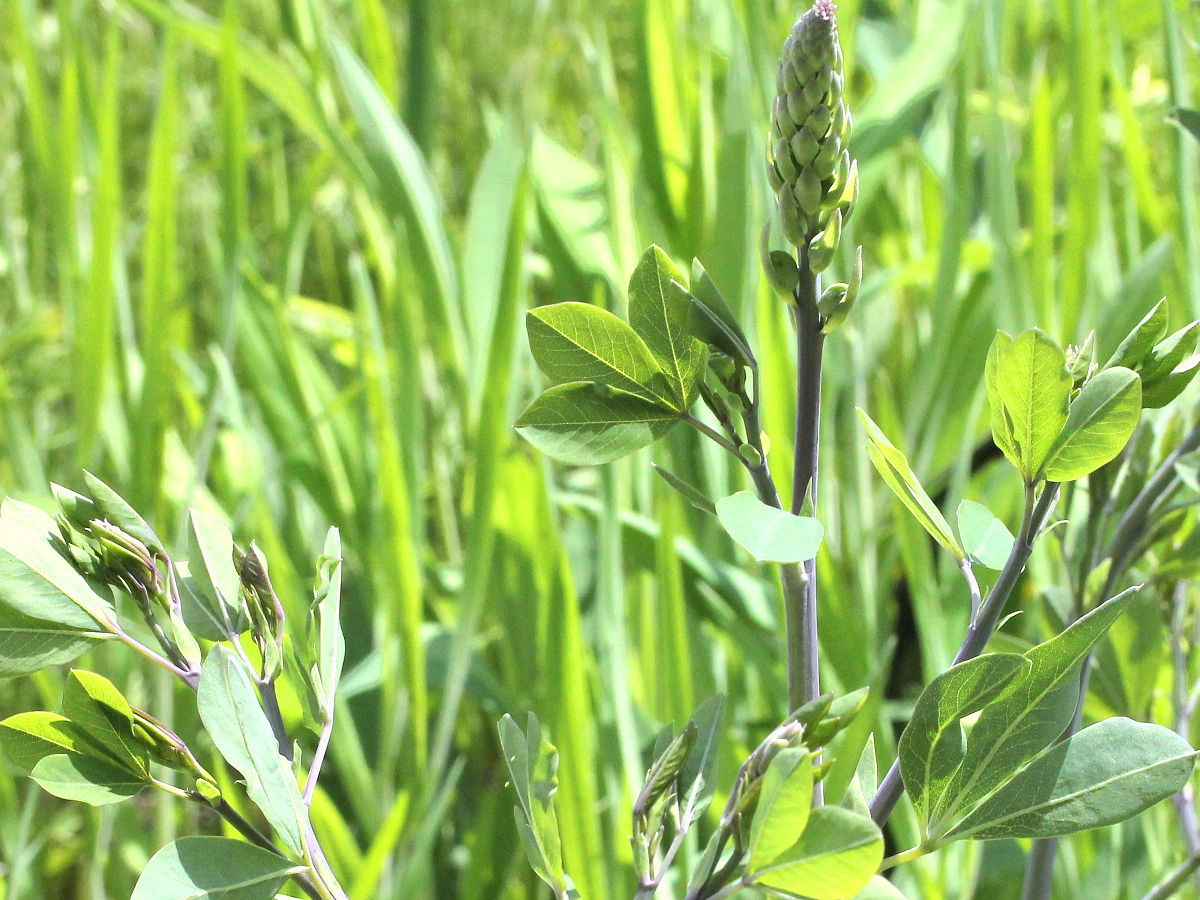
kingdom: Plantae
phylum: Tracheophyta
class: Magnoliopsida
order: Fabales
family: Fabaceae
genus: Baptisia
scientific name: Baptisia alba
